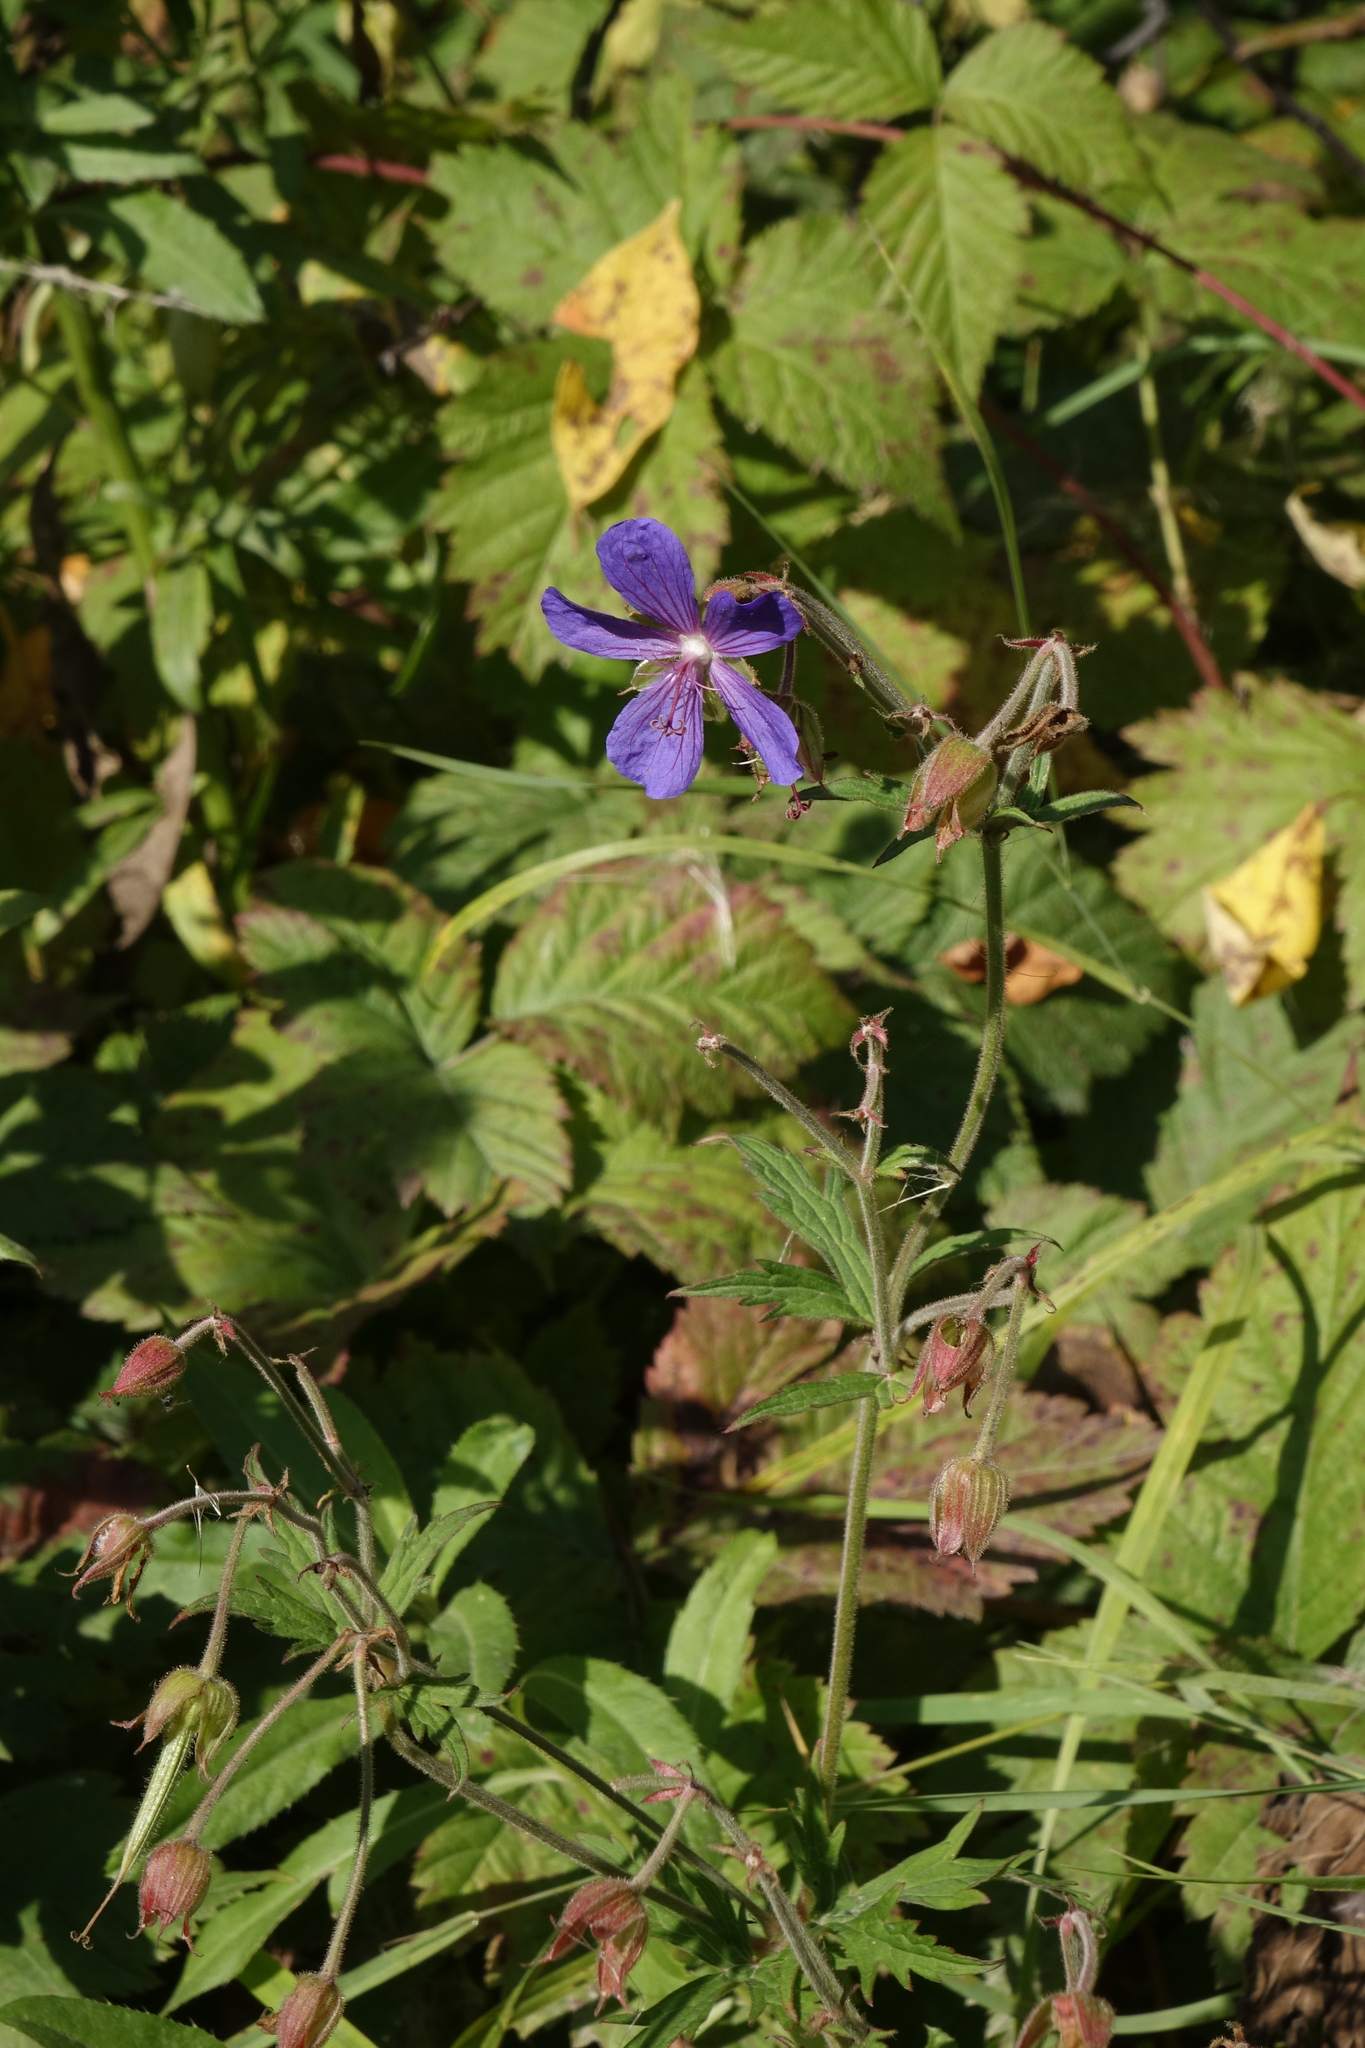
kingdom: Plantae
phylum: Tracheophyta
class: Magnoliopsida
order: Geraniales
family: Geraniaceae
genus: Geranium
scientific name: Geranium pratense
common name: Meadow crane's-bill
